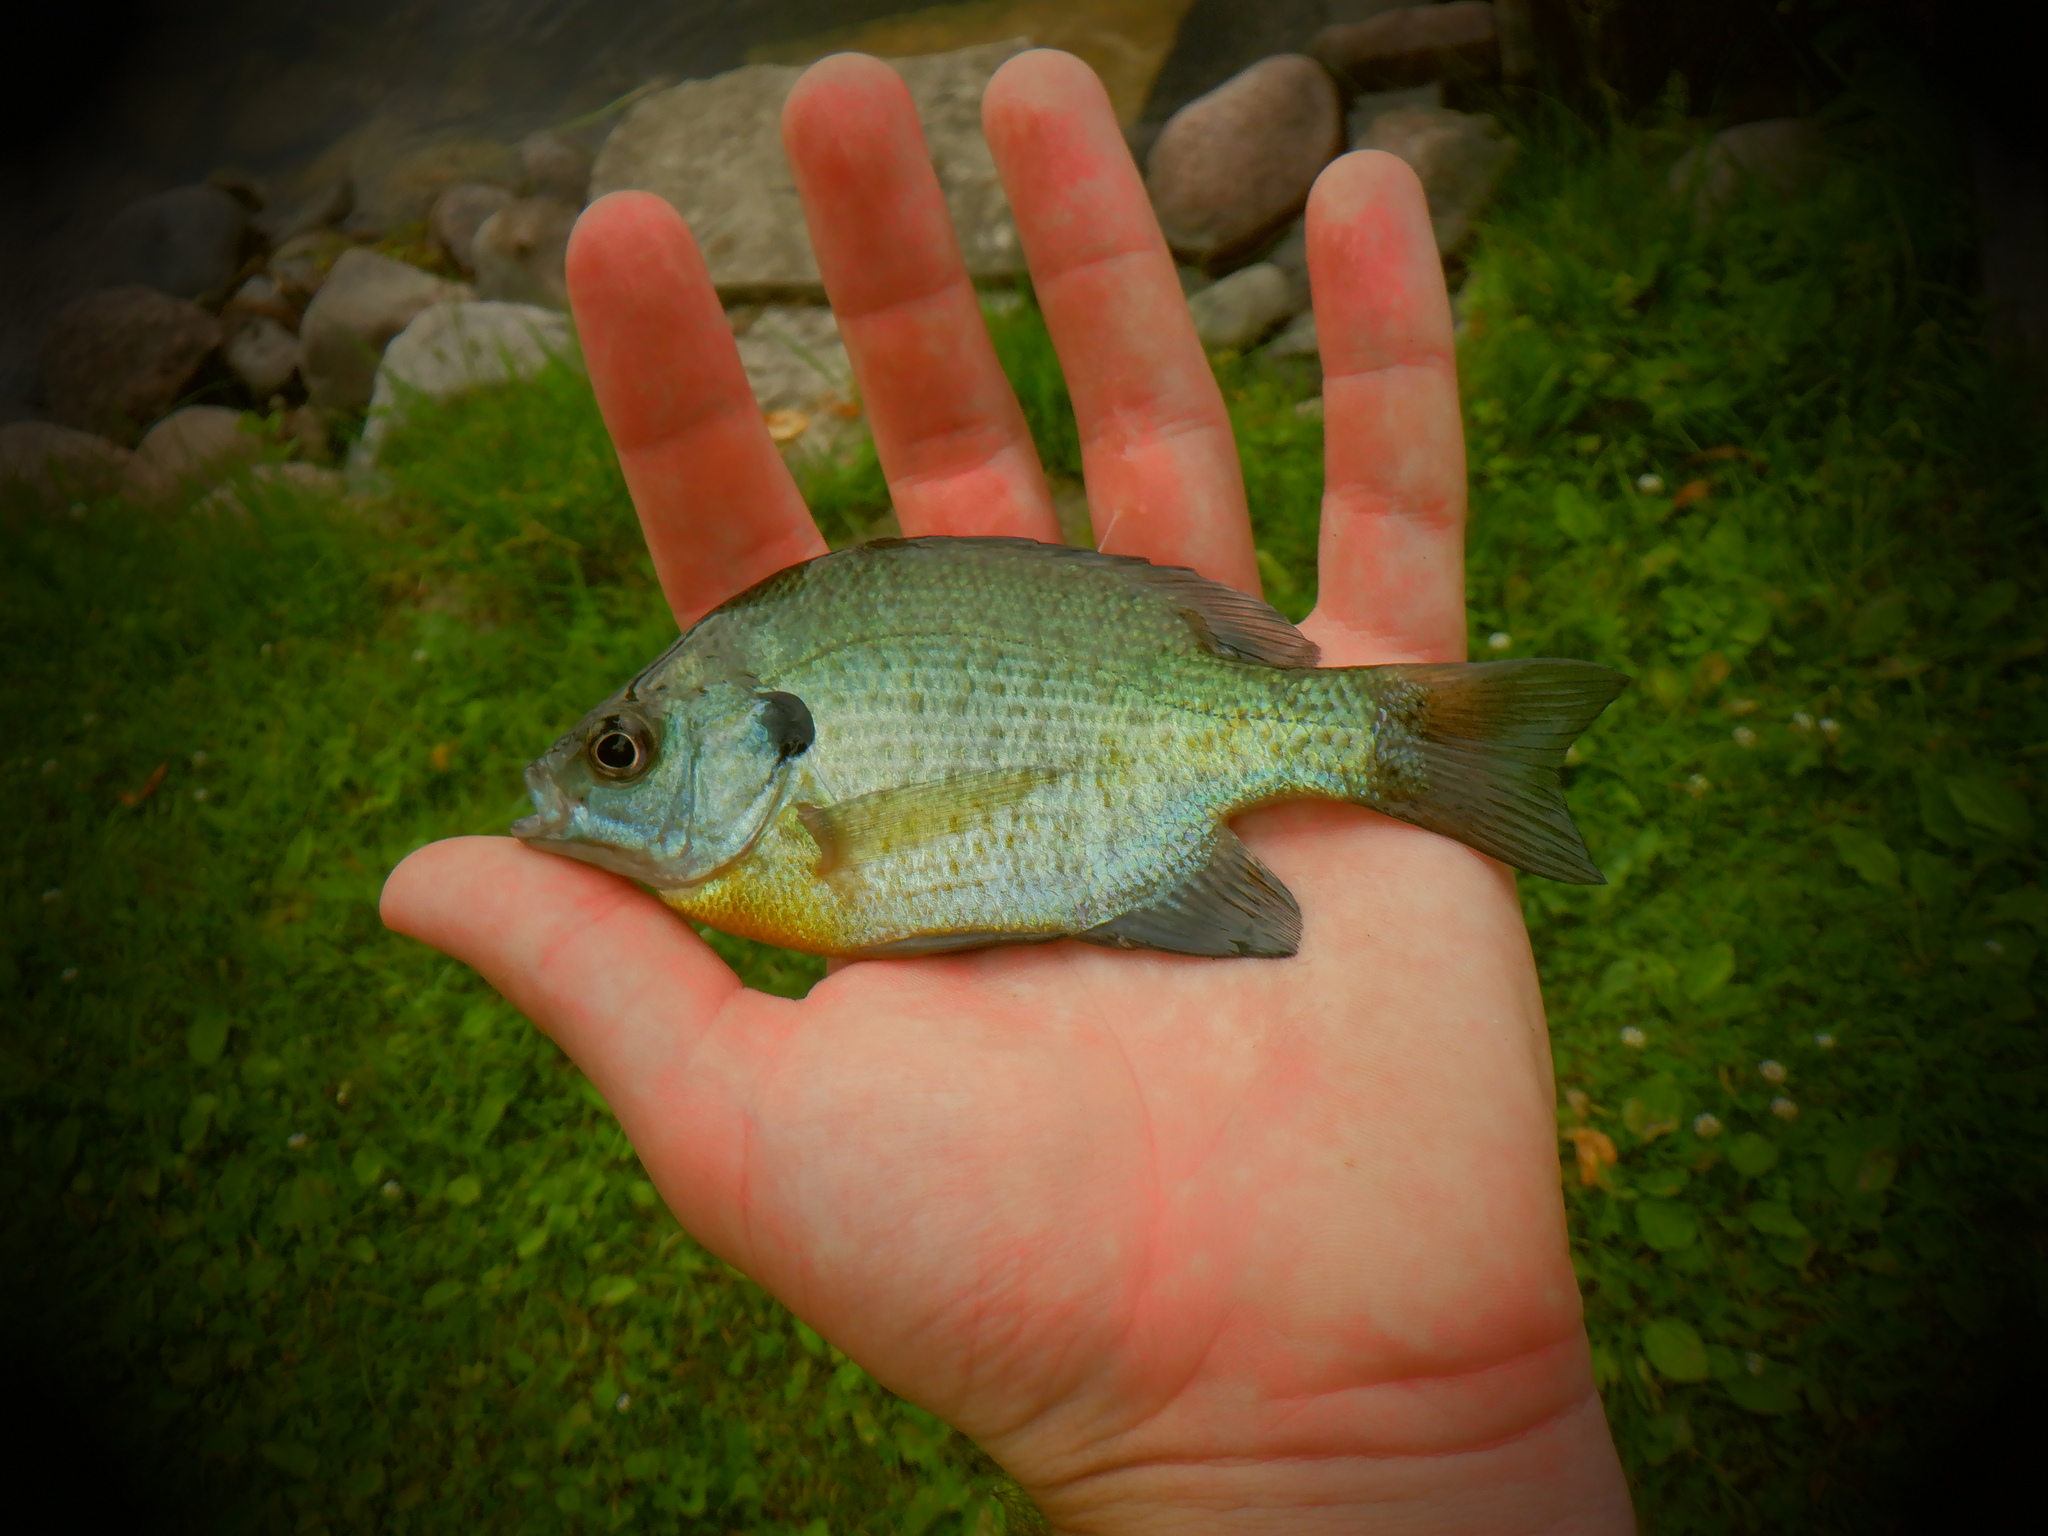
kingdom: Animalia
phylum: Chordata
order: Perciformes
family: Centrarchidae
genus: Lepomis
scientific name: Lepomis macrochirus
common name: Bluegill
